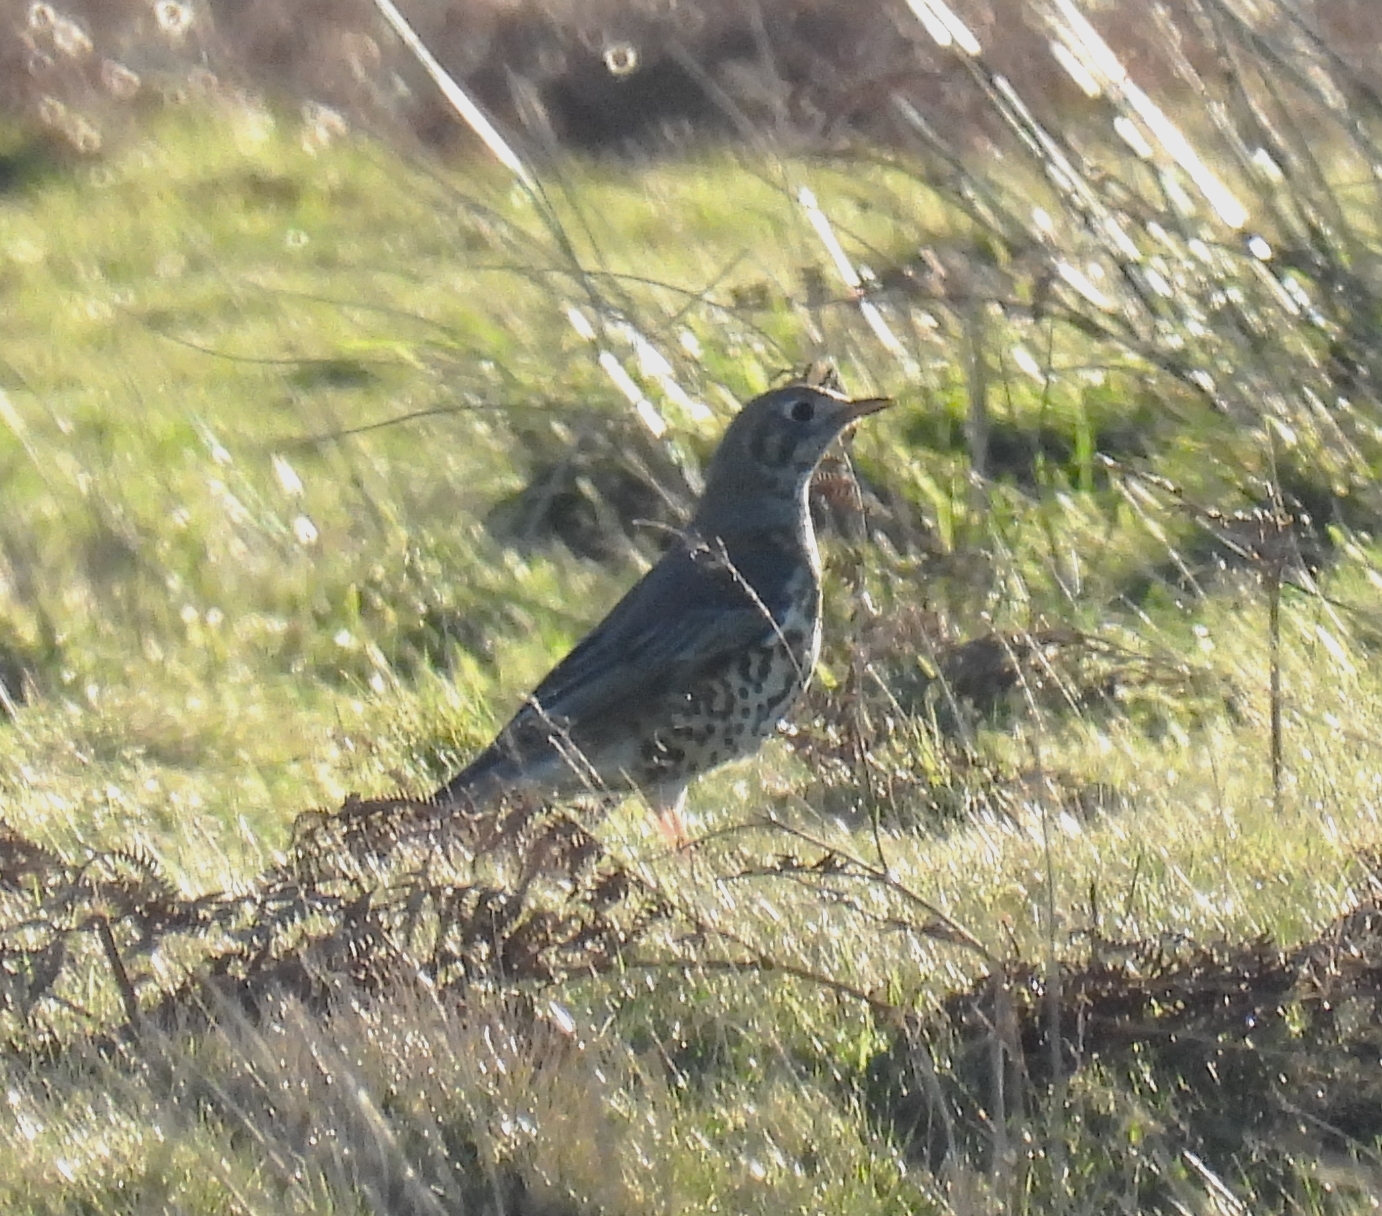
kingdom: Animalia
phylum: Chordata
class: Aves
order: Passeriformes
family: Turdidae
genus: Turdus
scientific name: Turdus viscivorus
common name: Mistle thrush
